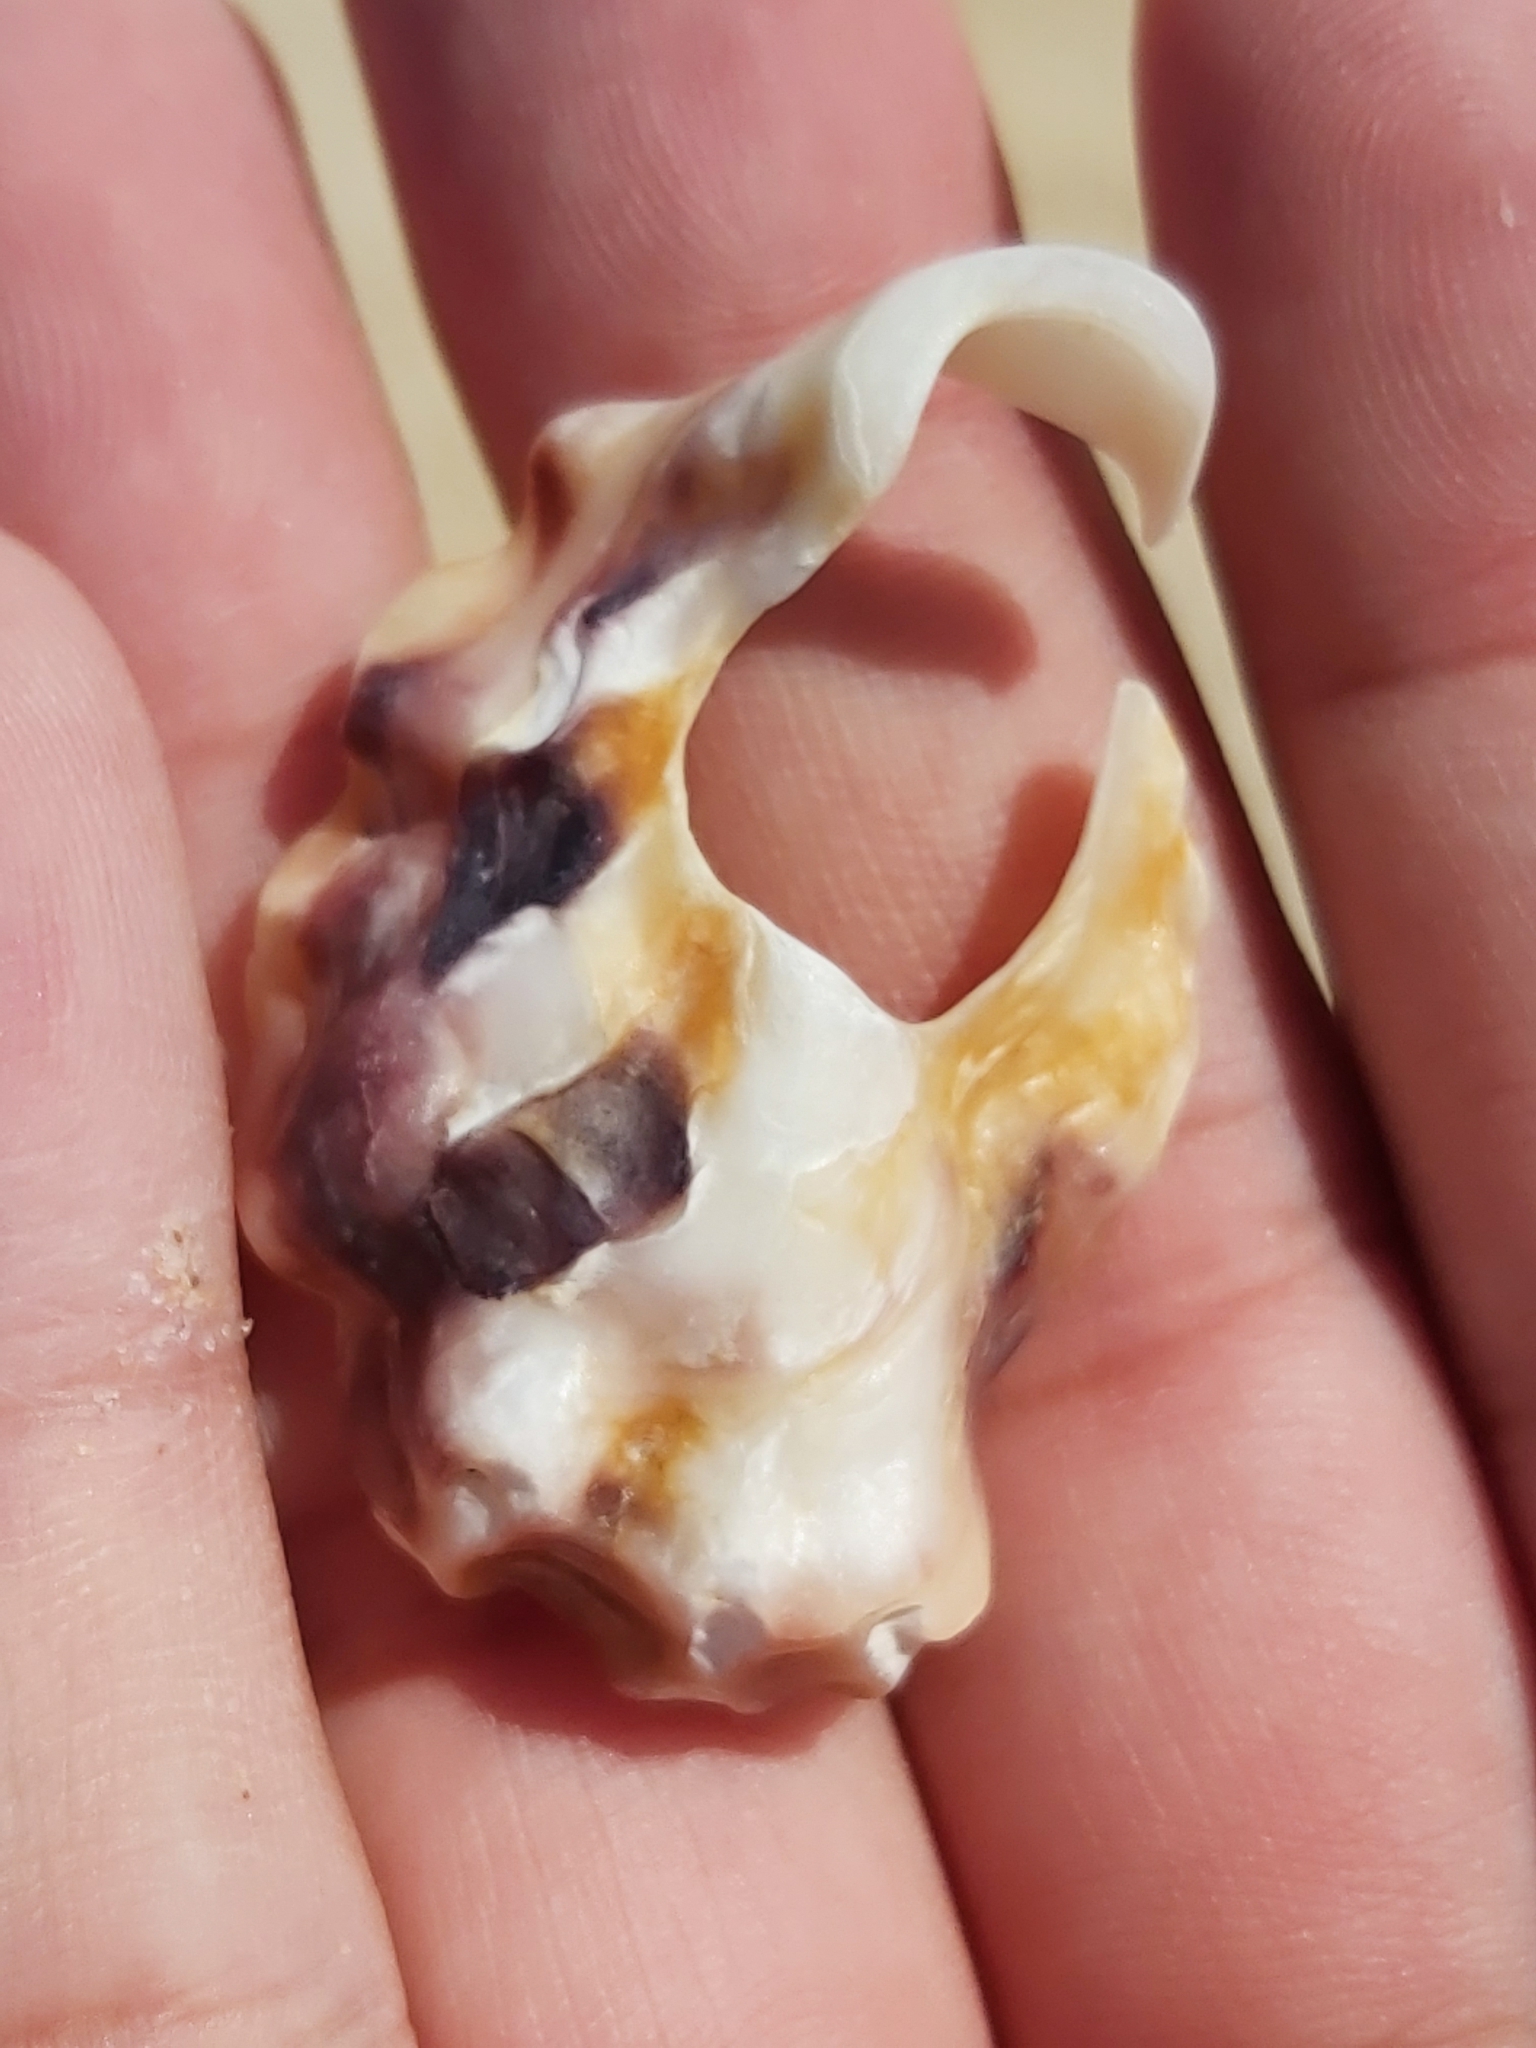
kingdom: Animalia
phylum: Mollusca
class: Bivalvia
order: Ostreida
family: Ostreidae
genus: Saccostrea
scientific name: Saccostrea glomerata
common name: Sydney cupped oyster
